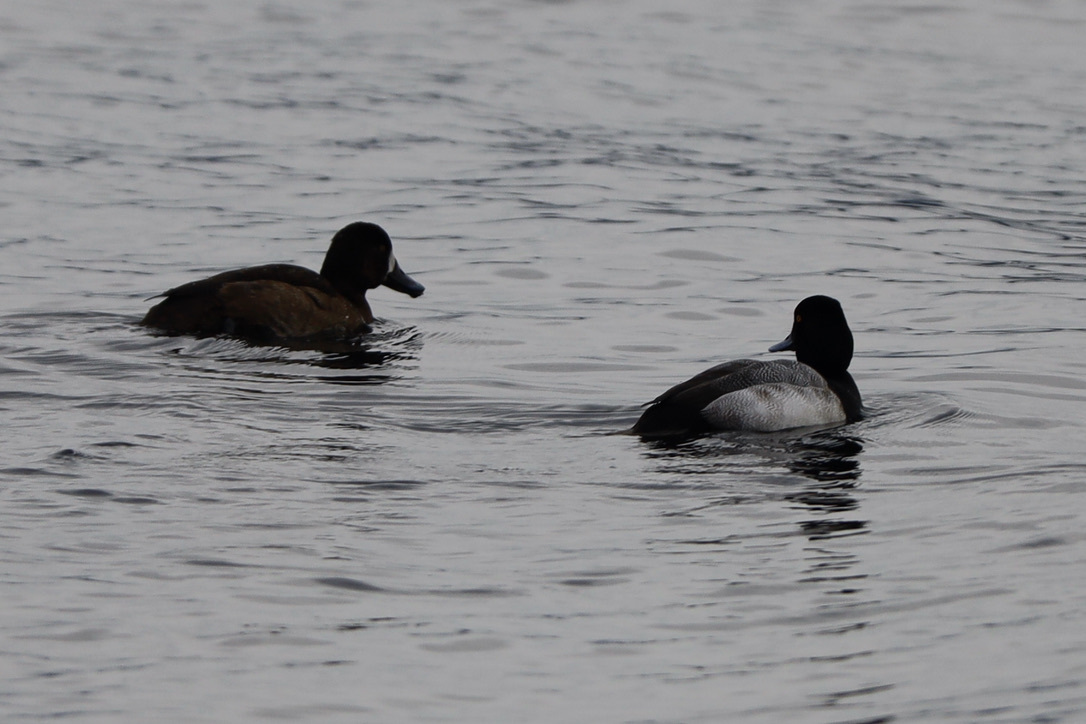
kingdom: Animalia
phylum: Chordata
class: Aves
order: Anseriformes
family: Anatidae
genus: Aythya
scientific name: Aythya marila
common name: Greater scaup
